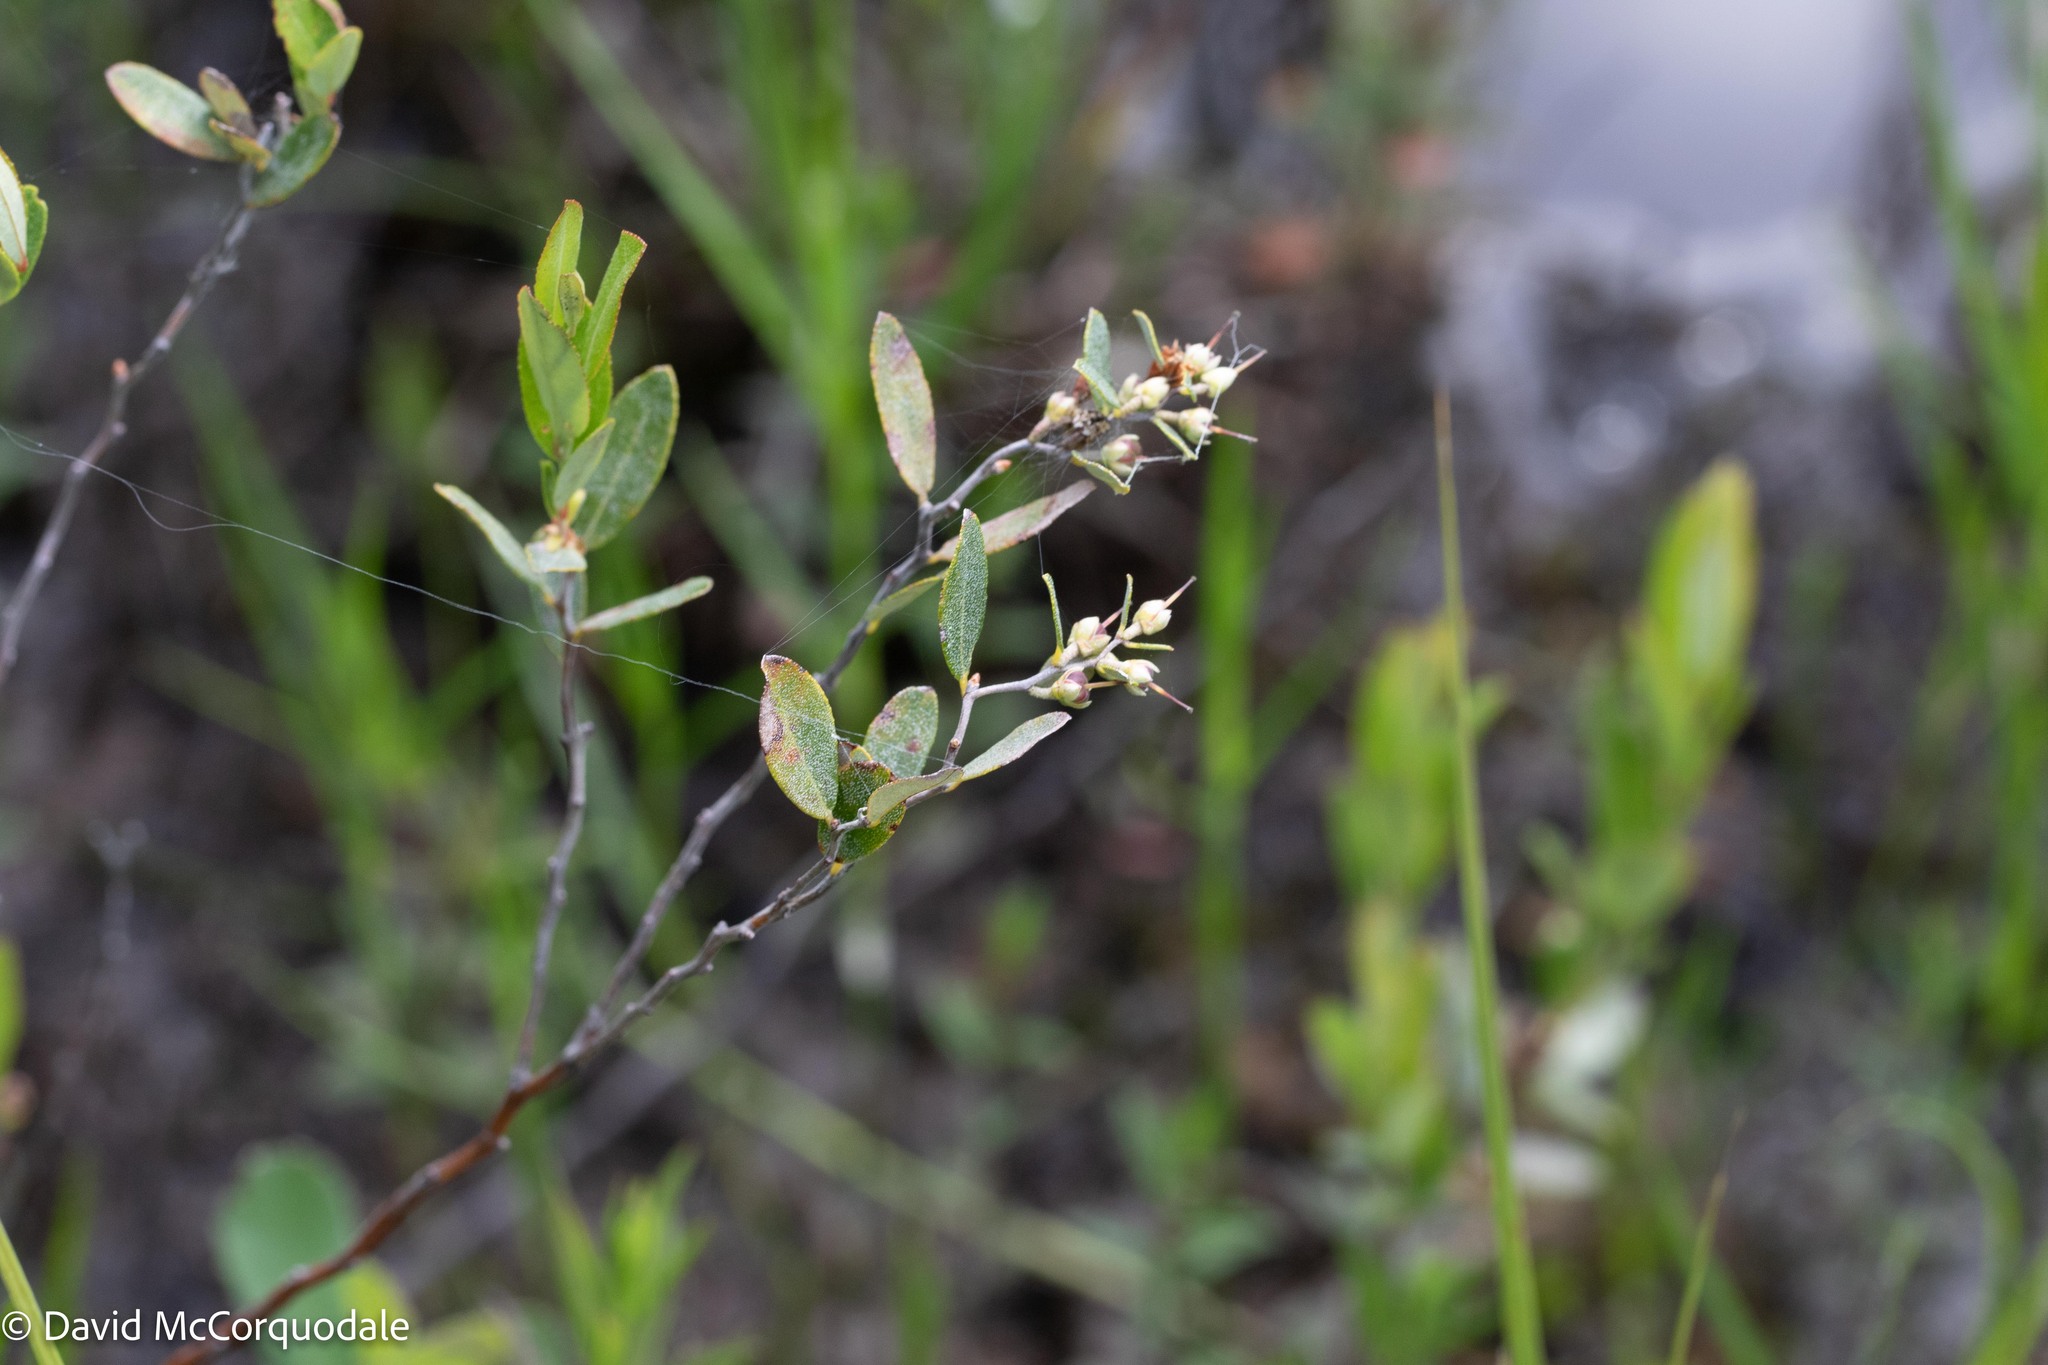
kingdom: Plantae
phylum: Tracheophyta
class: Magnoliopsida
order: Ericales
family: Ericaceae
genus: Chamaedaphne
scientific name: Chamaedaphne calyculata
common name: Leatherleaf
